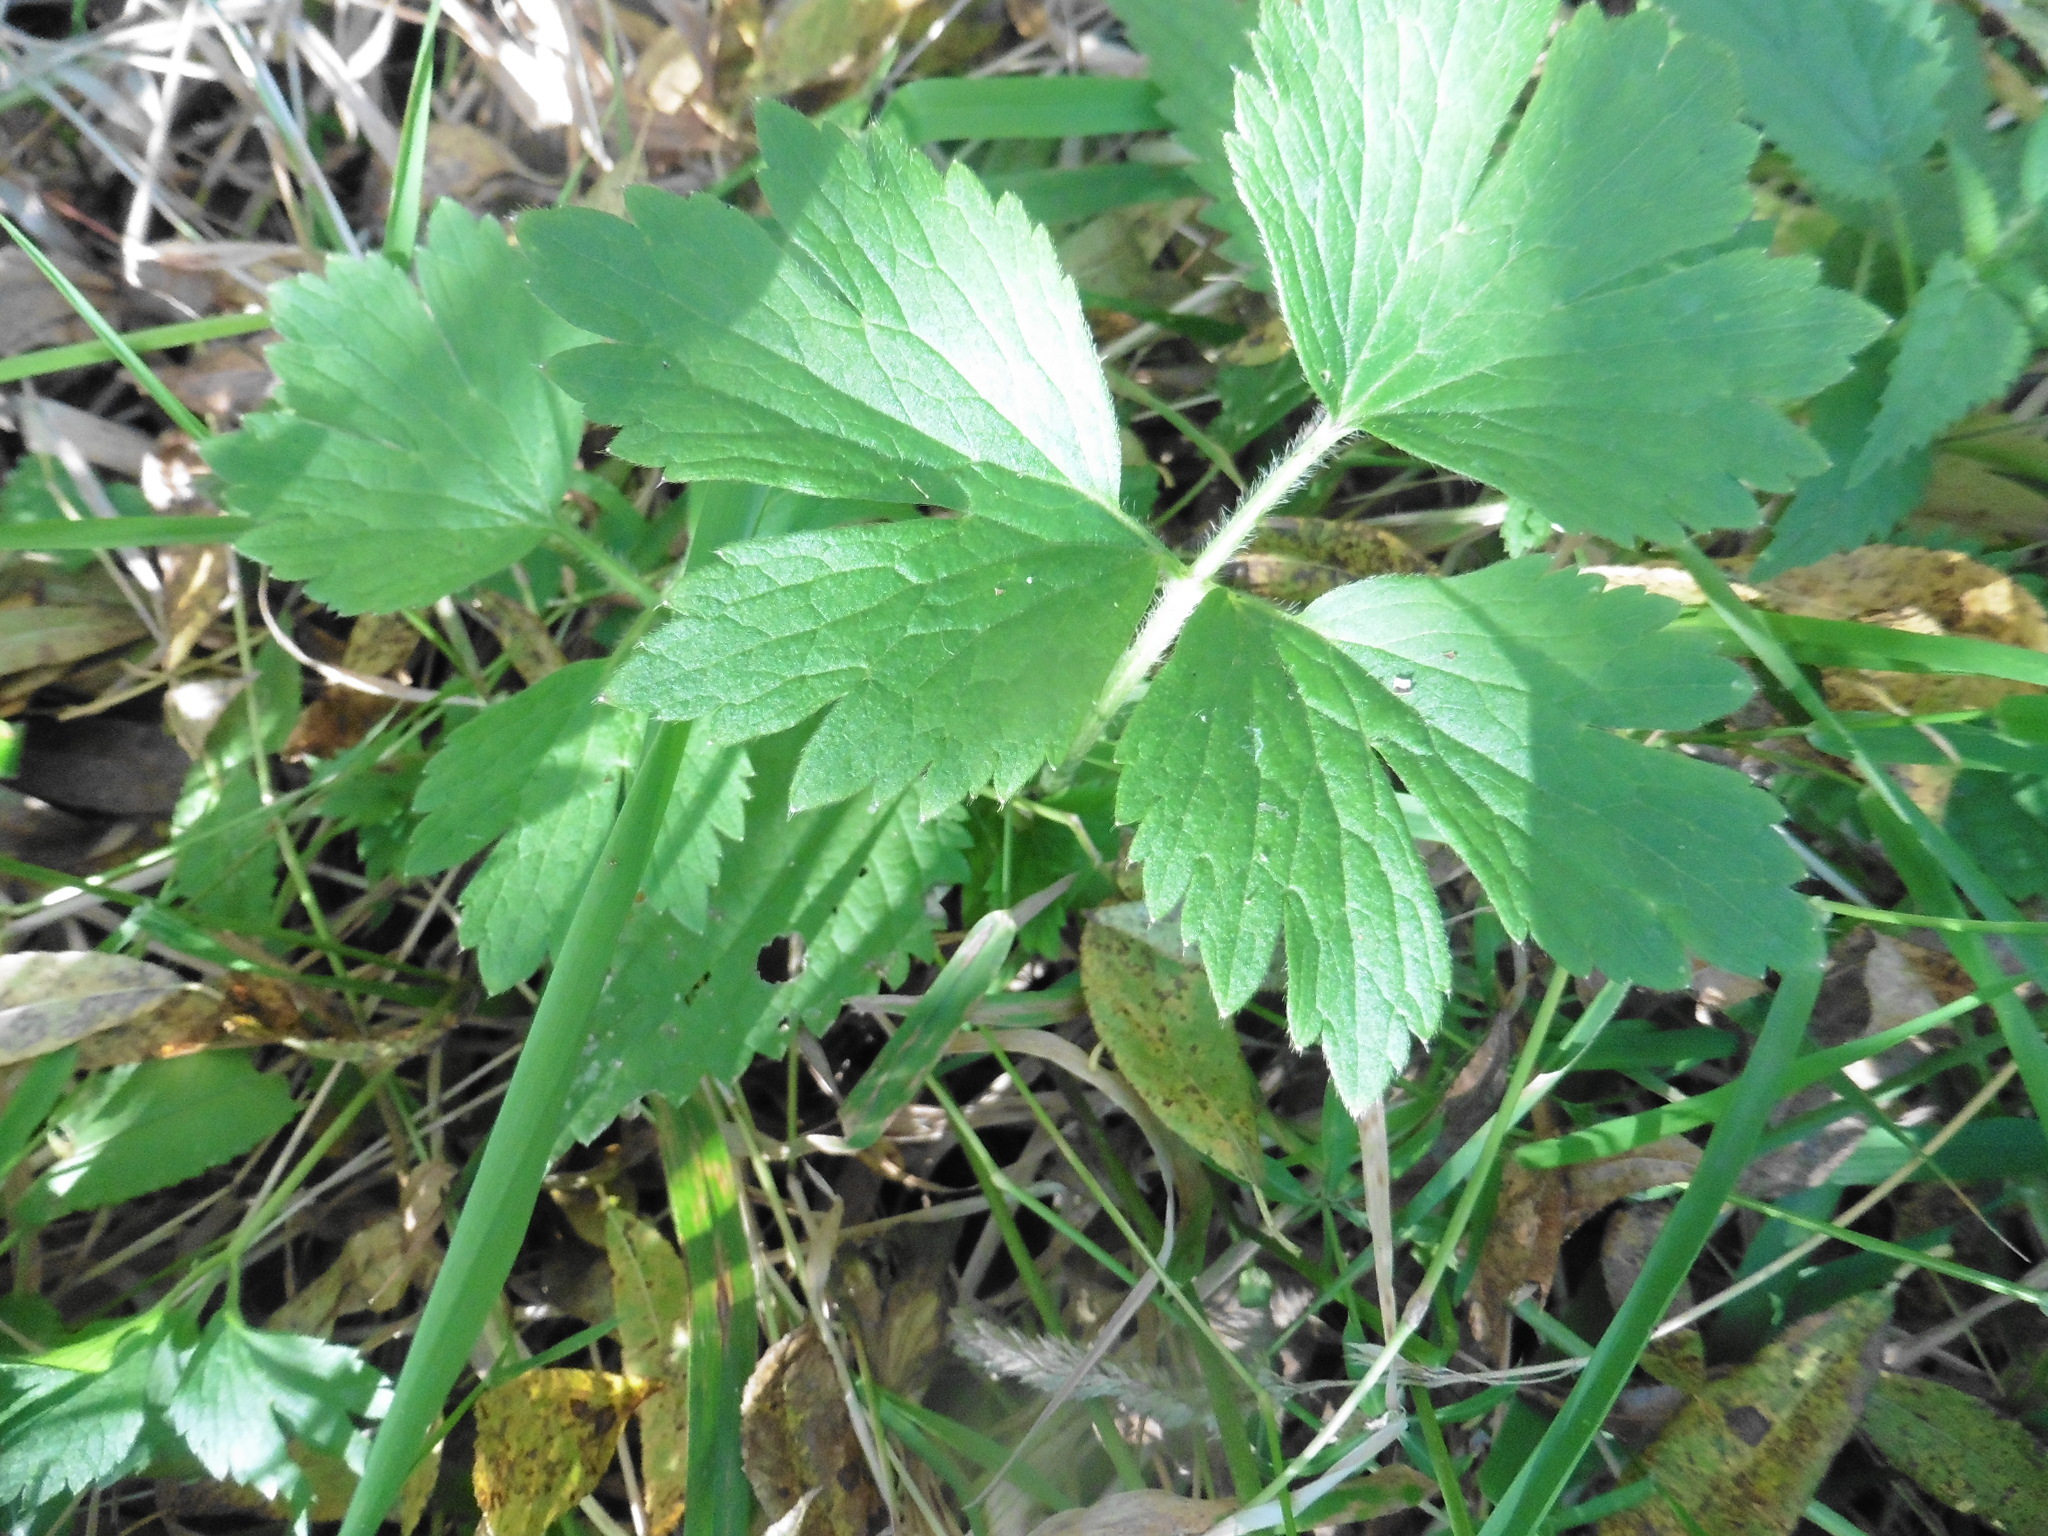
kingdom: Plantae
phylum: Tracheophyta
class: Magnoliopsida
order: Ranunculales
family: Ranunculaceae
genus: Ranunculus
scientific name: Ranunculus repens
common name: Creeping buttercup
